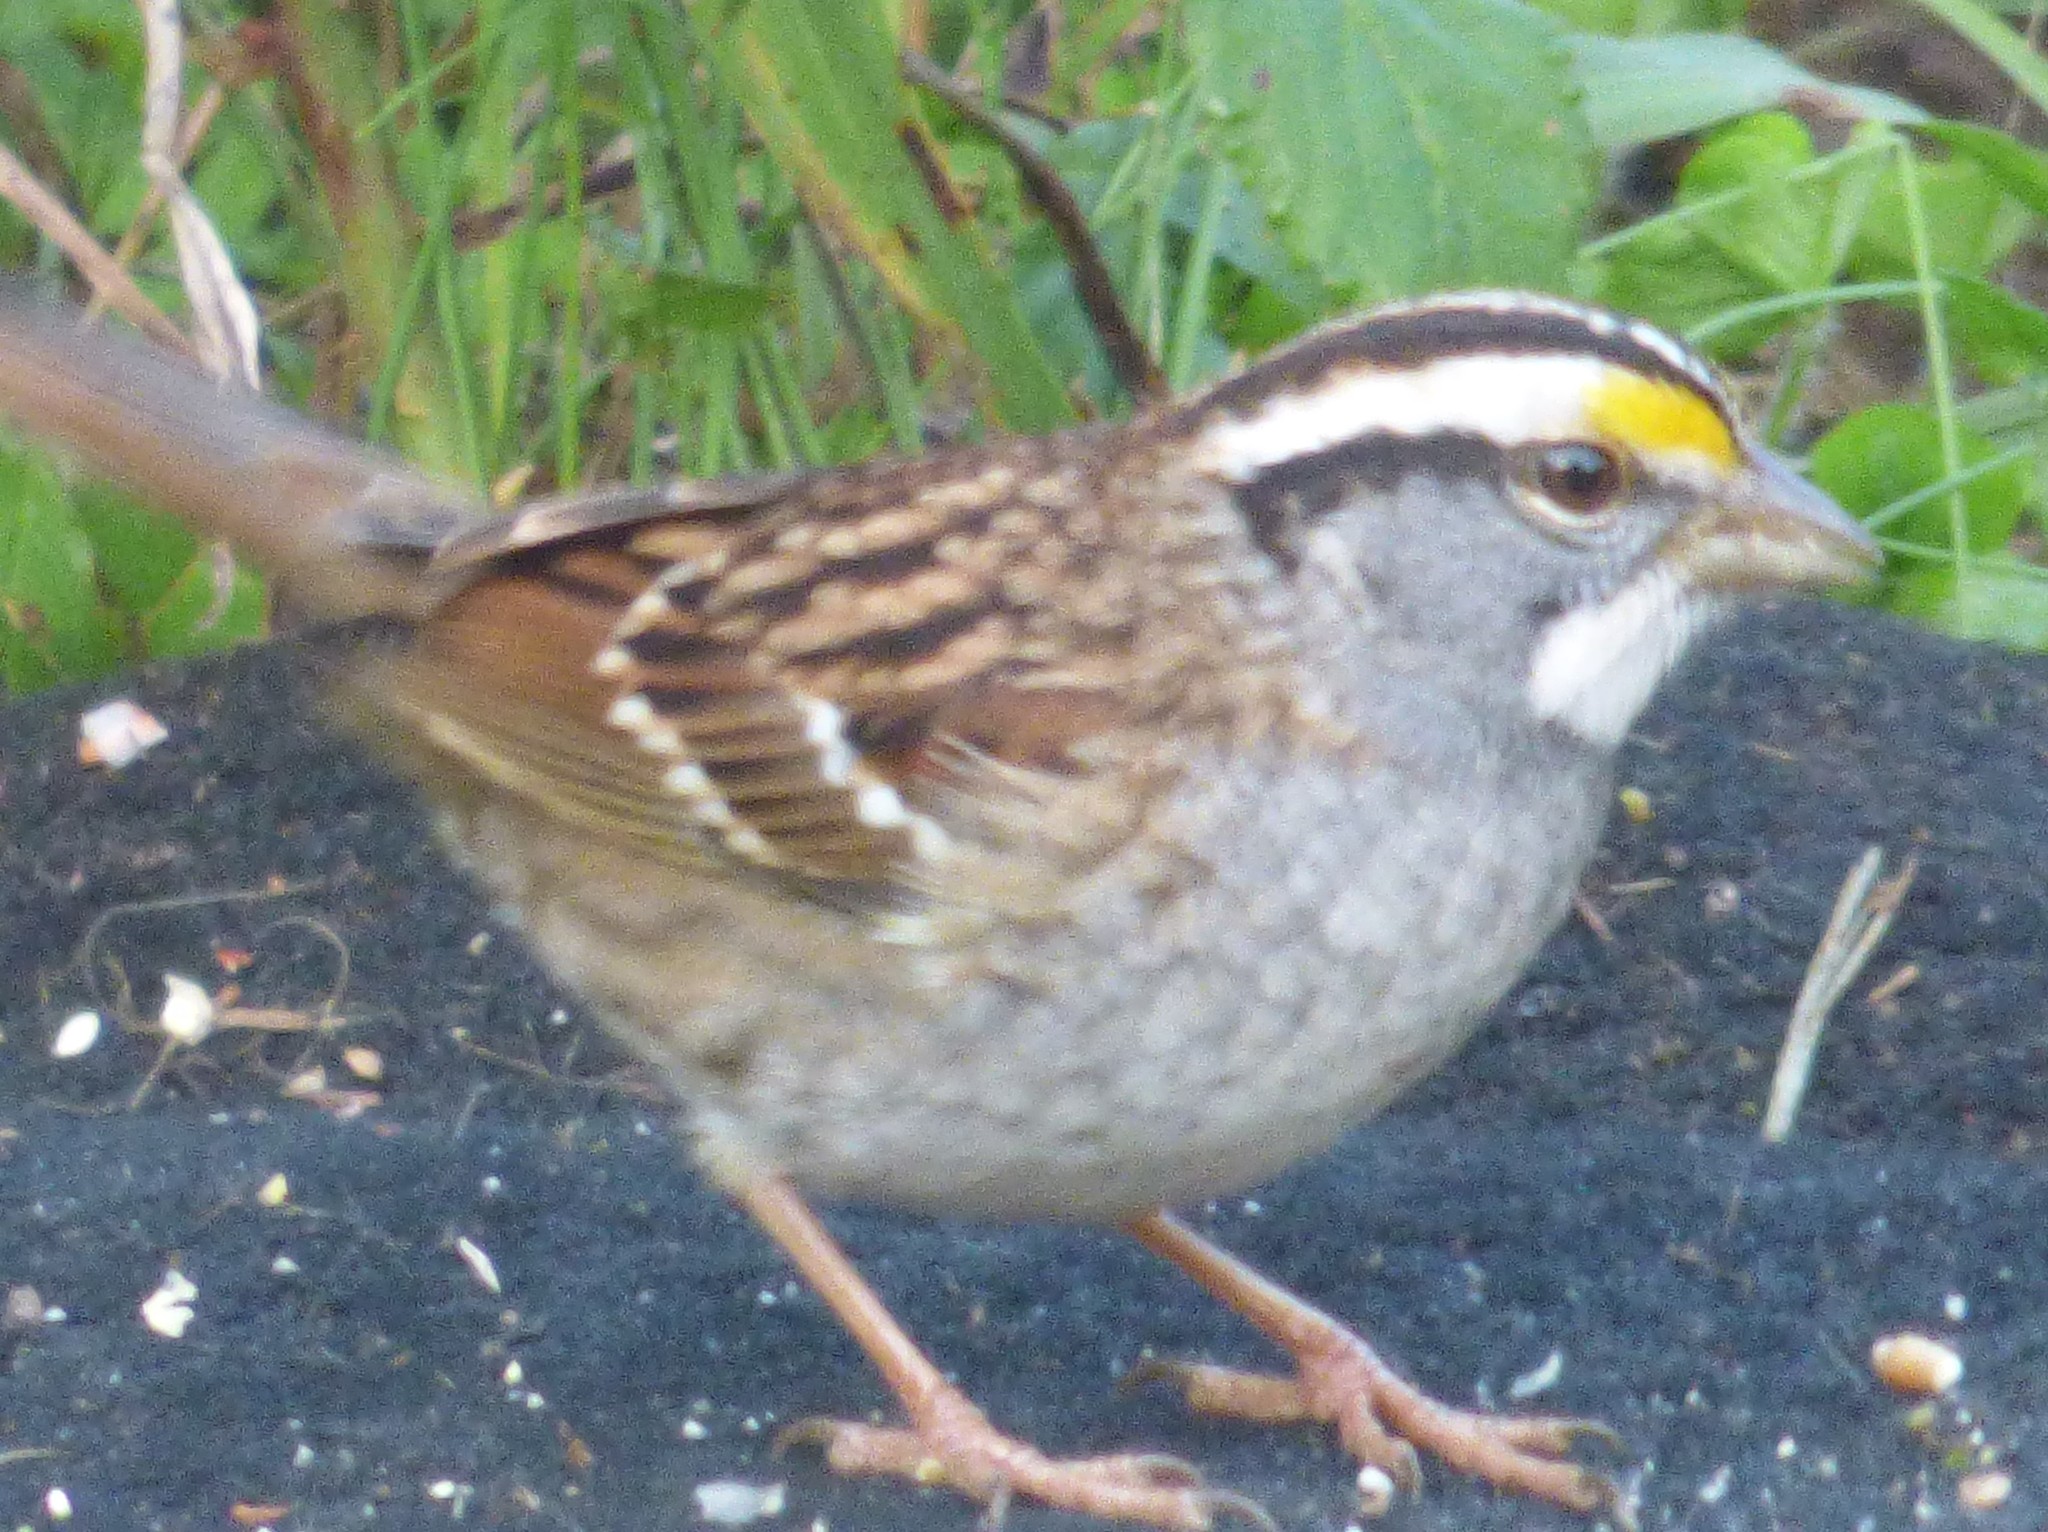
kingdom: Animalia
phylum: Chordata
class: Aves
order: Passeriformes
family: Passerellidae
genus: Zonotrichia
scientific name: Zonotrichia albicollis
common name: White-throated sparrow
